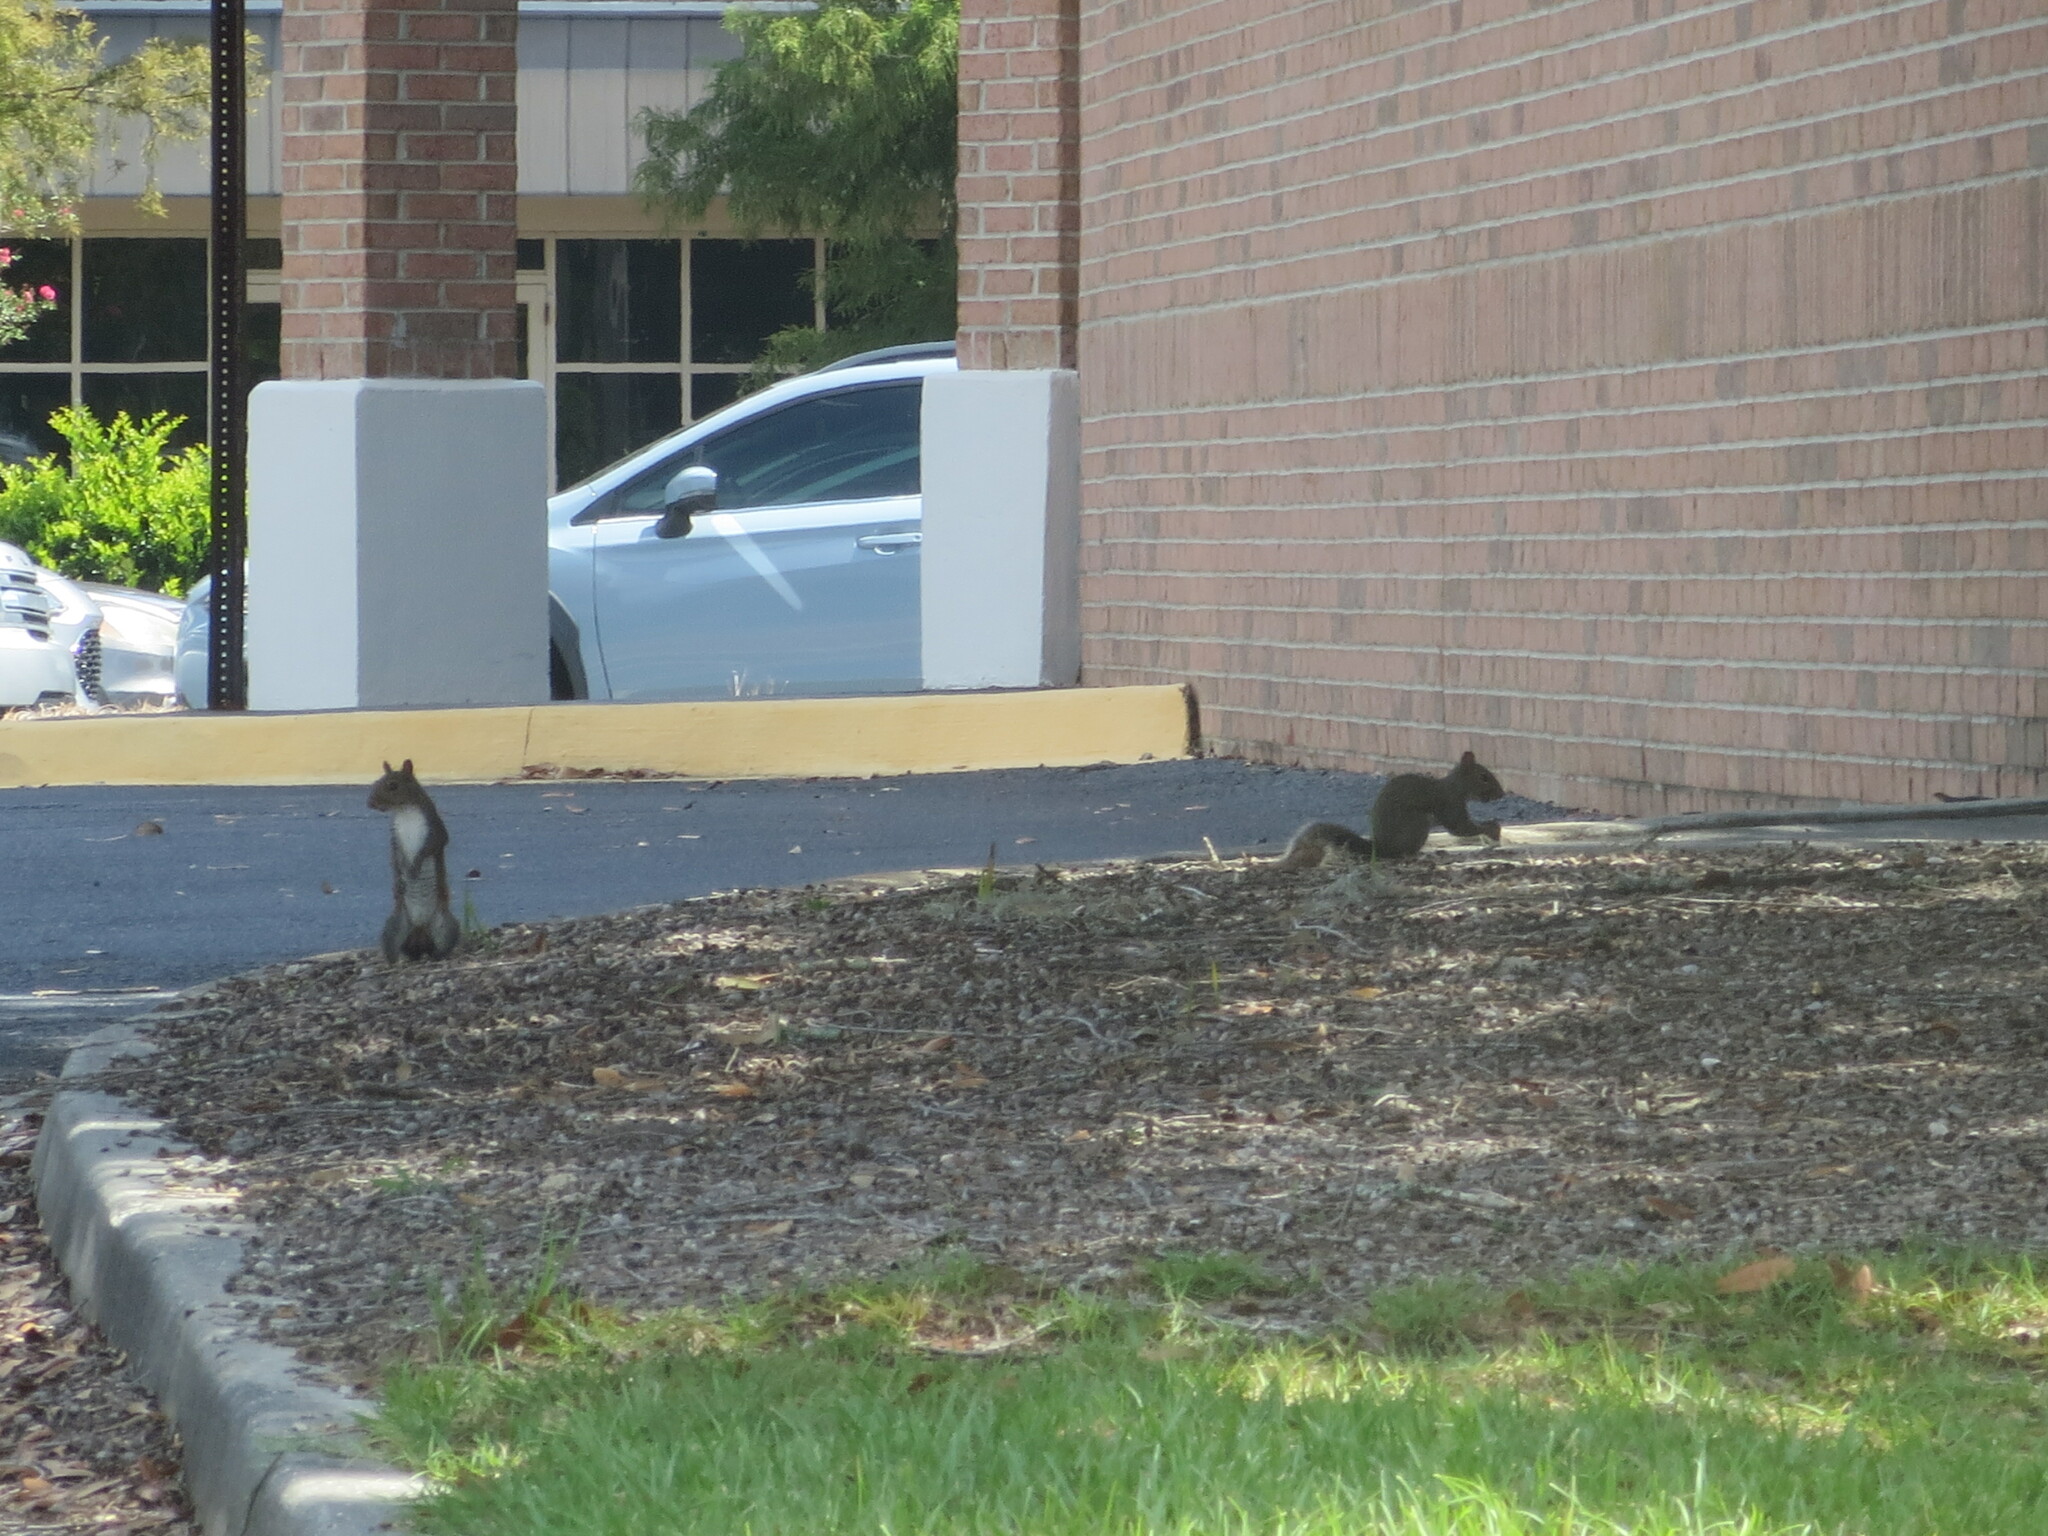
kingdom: Animalia
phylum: Chordata
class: Mammalia
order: Rodentia
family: Sciuridae
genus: Sciurus
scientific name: Sciurus carolinensis
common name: Eastern gray squirrel
